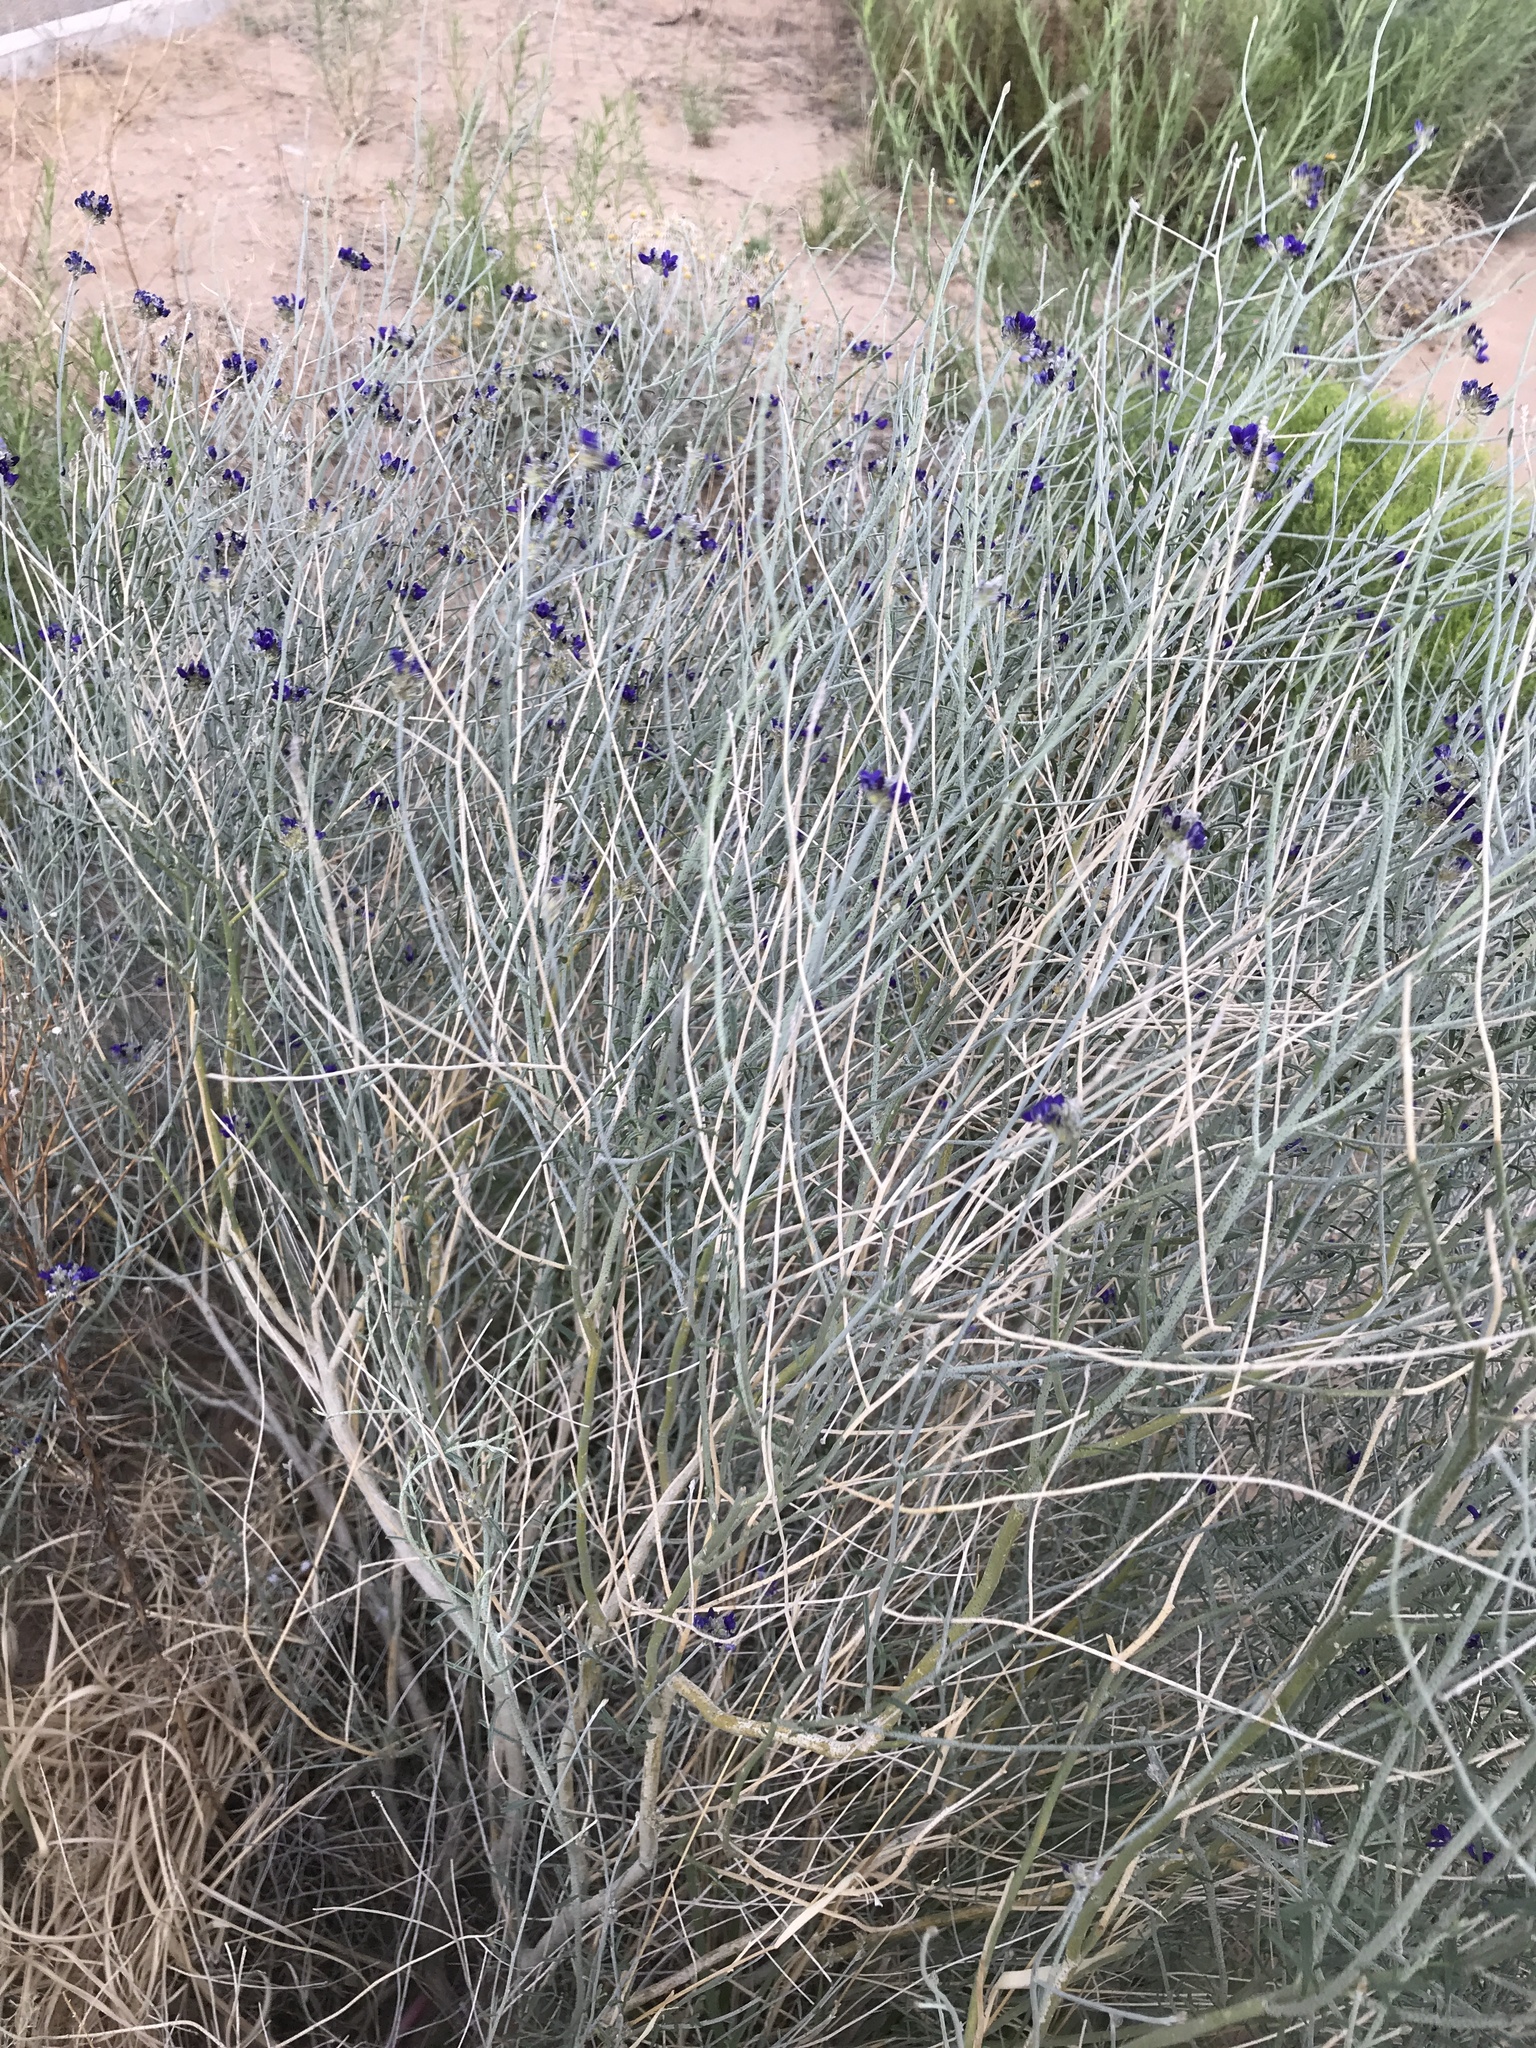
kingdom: Plantae
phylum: Tracheophyta
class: Magnoliopsida
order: Fabales
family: Fabaceae
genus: Psorothamnus
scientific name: Psorothamnus scoparius
